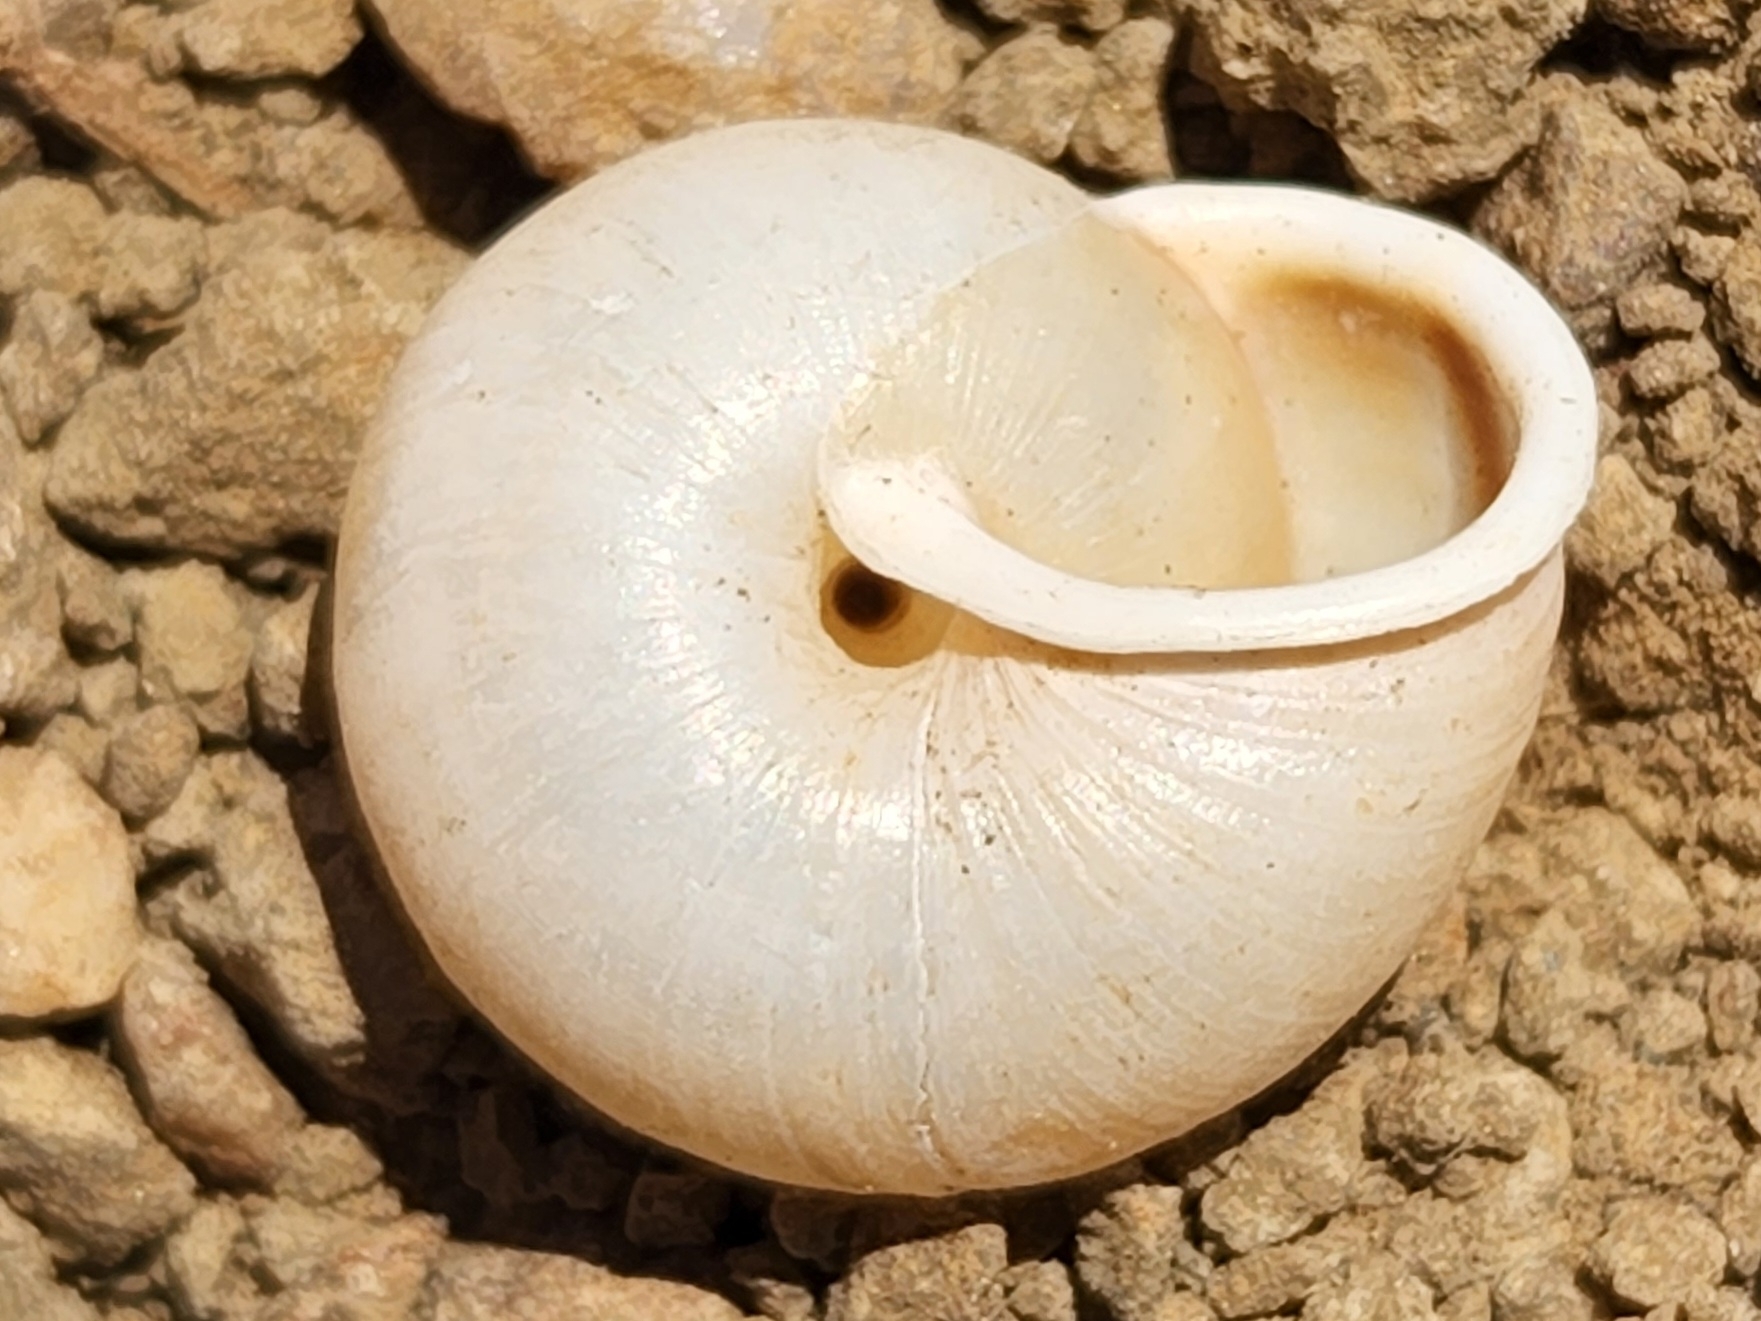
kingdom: Animalia
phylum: Mollusca
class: Gastropoda
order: Stylommatophora
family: Xanthonychidae
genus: Micrarionta
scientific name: Micrarionta rufocincta
